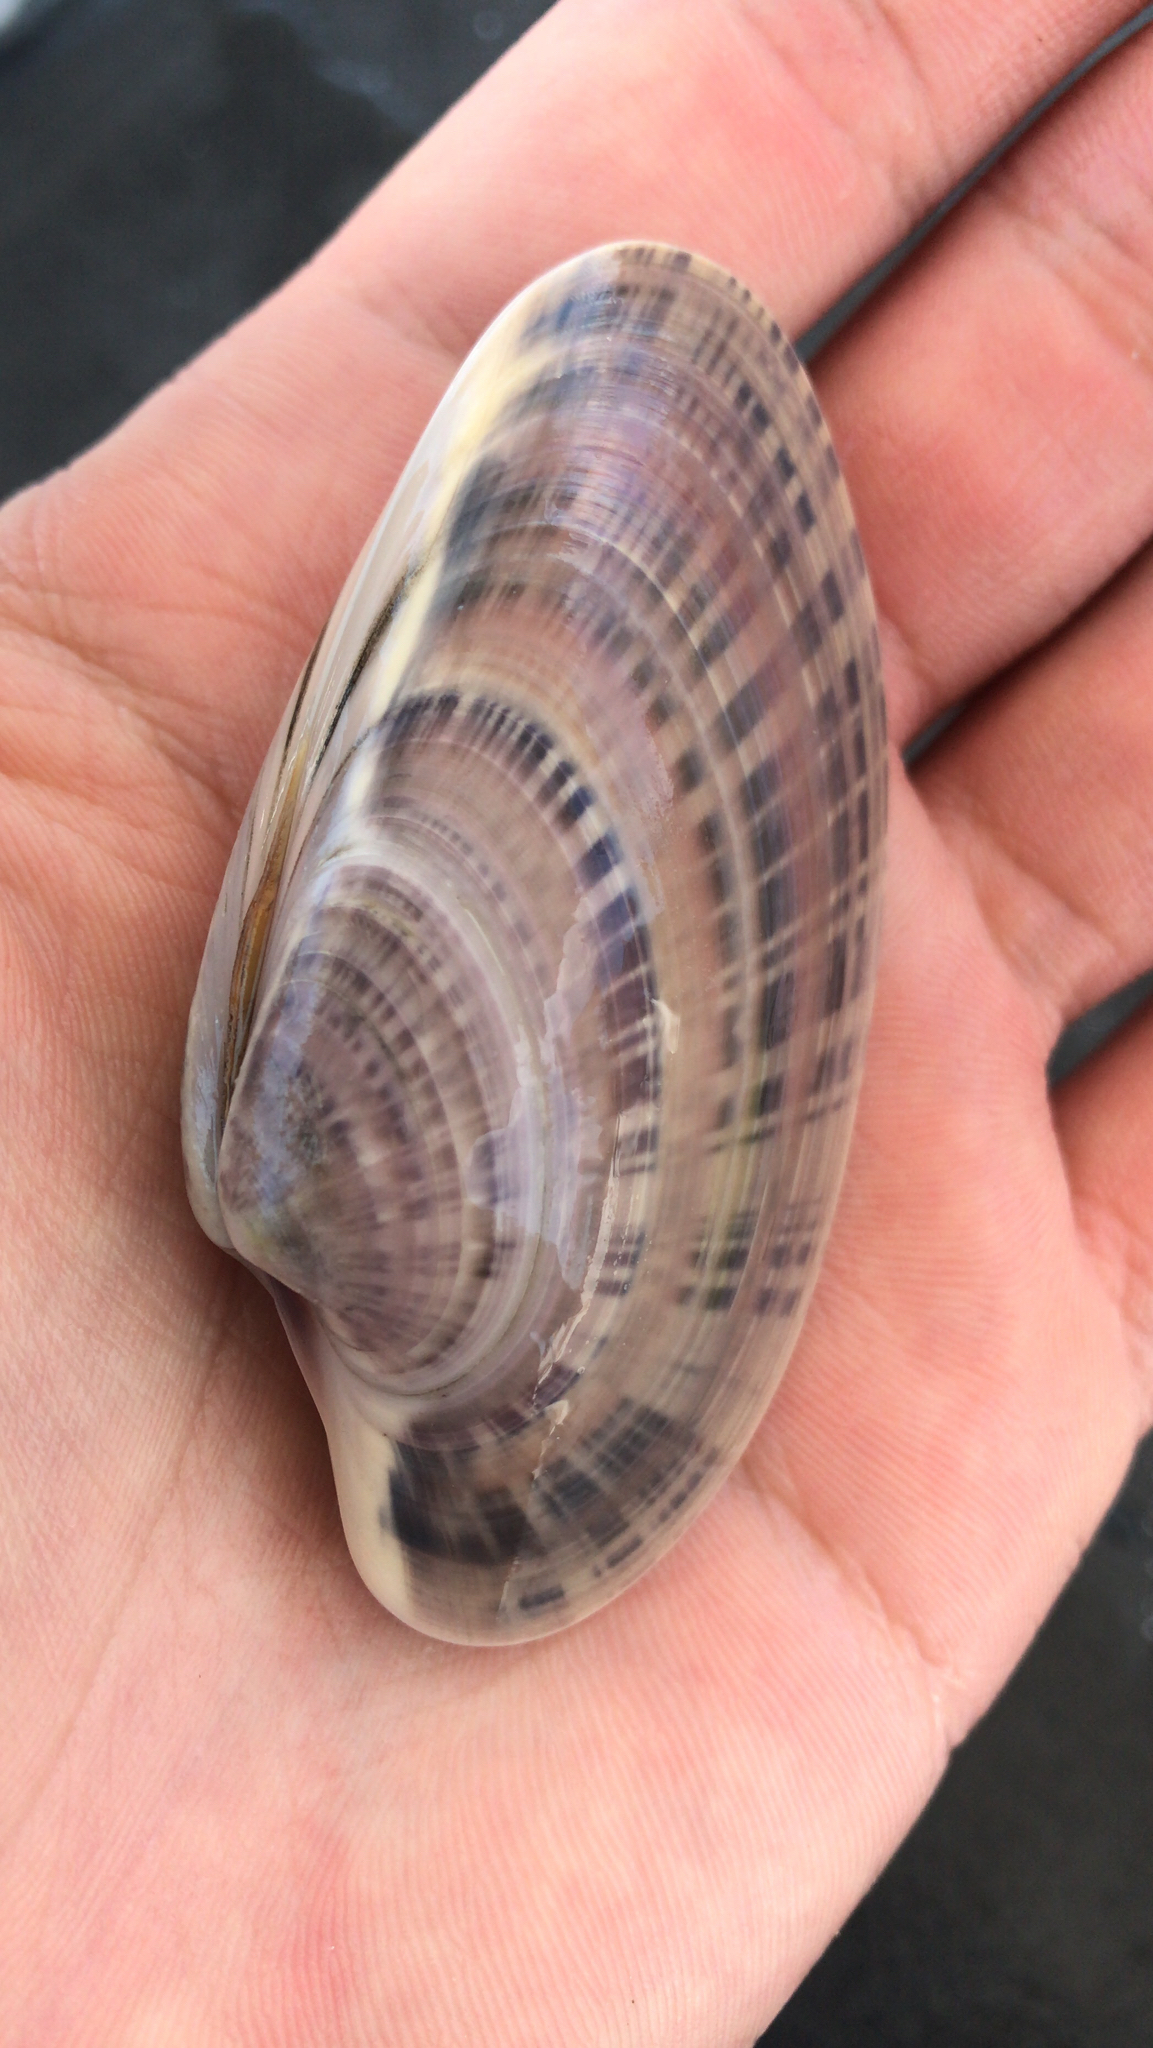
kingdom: Animalia
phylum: Mollusca
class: Bivalvia
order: Venerida
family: Veneridae
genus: Macrocallista
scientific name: Macrocallista nimbosa
